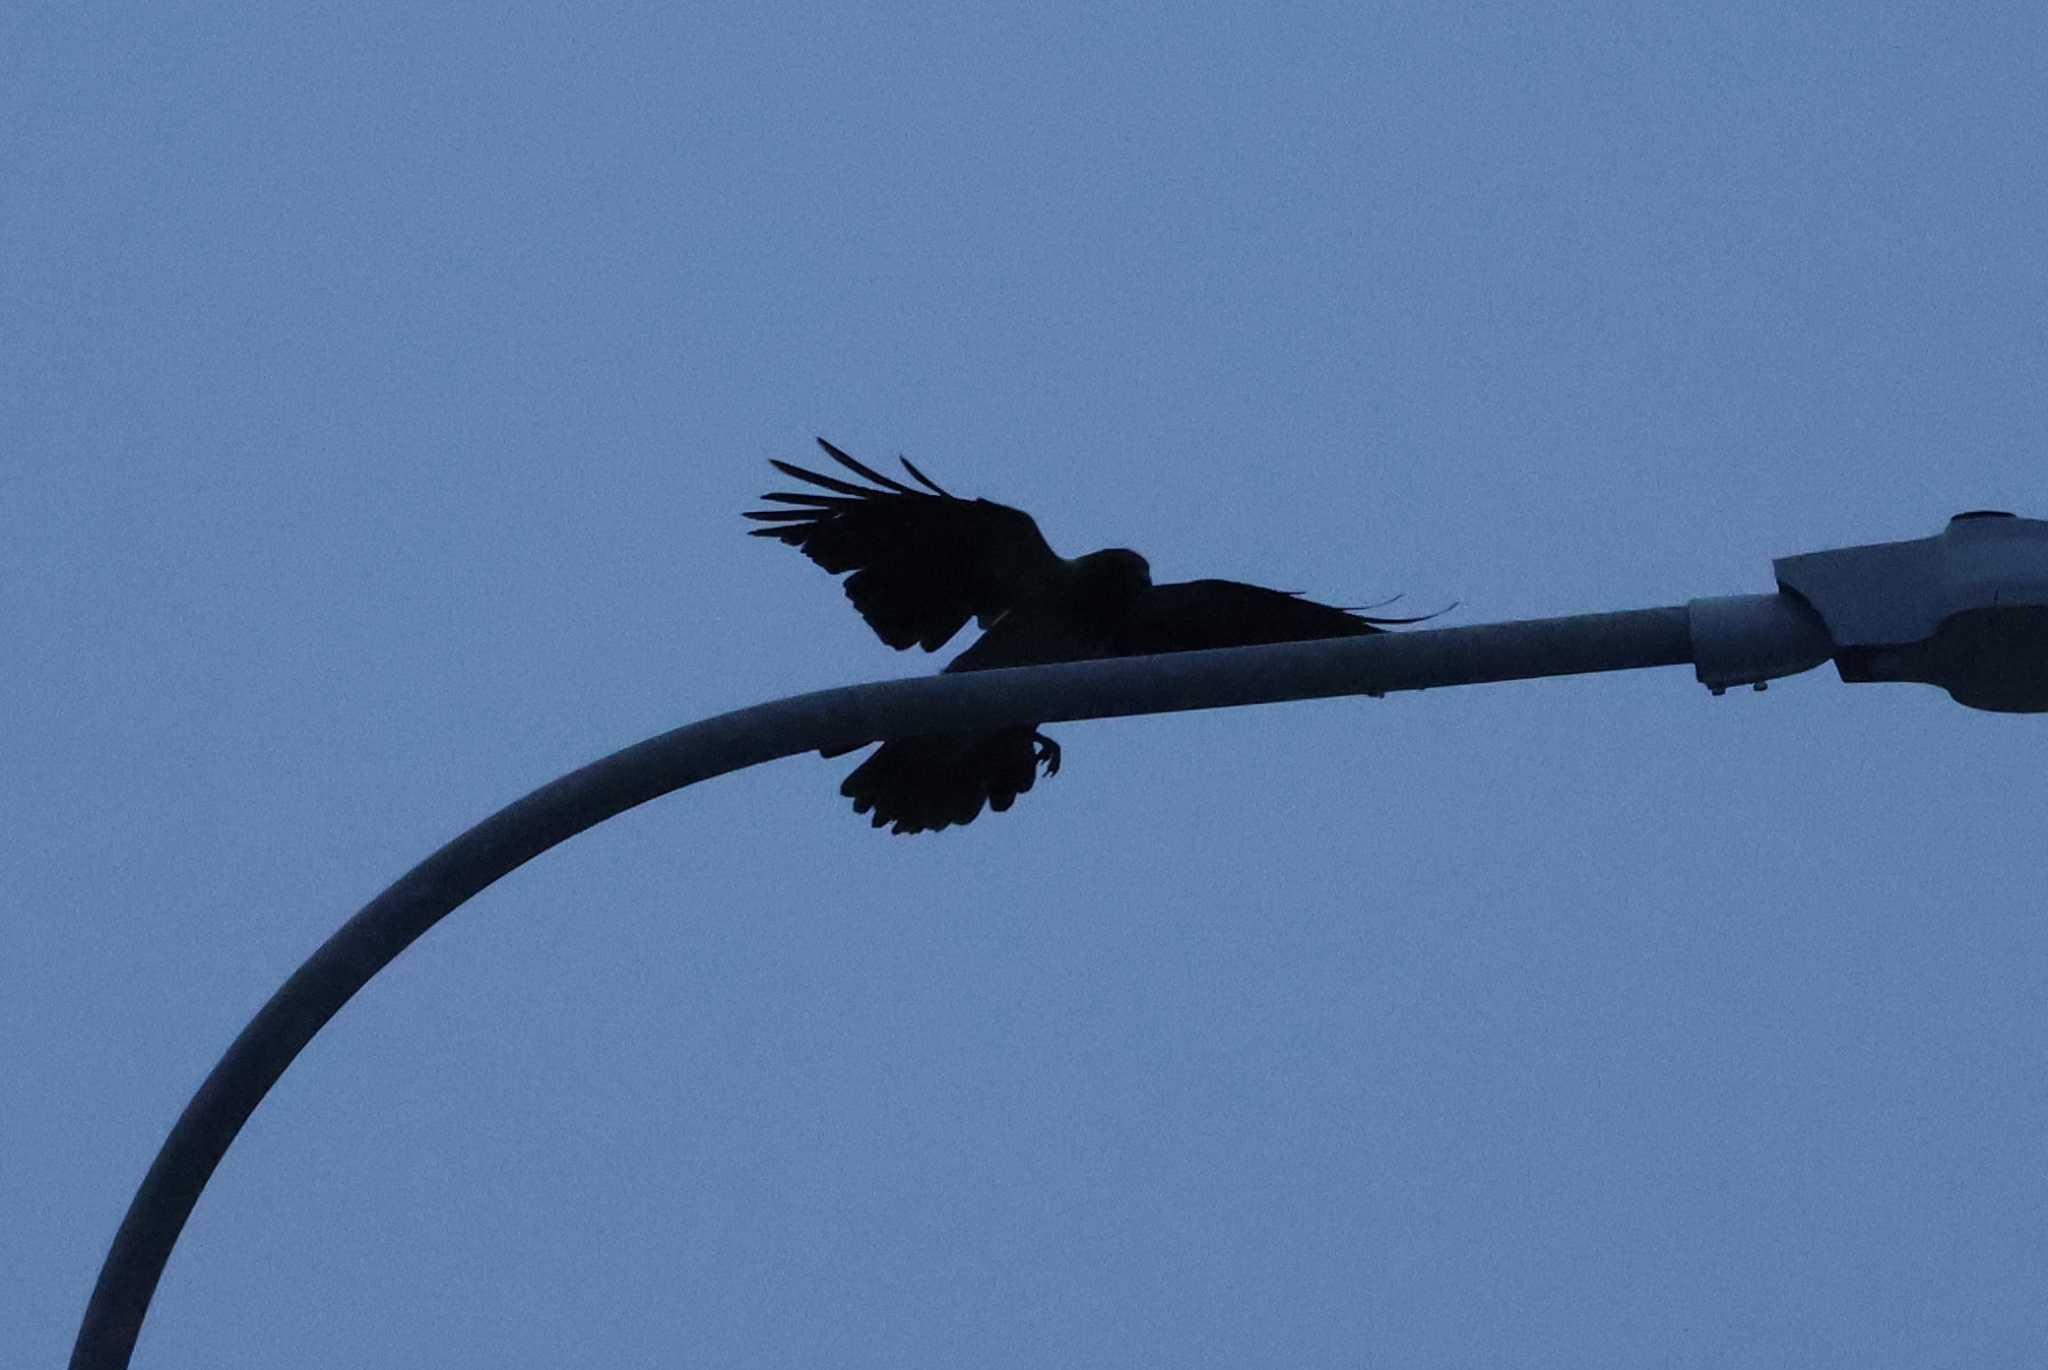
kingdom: Animalia
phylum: Chordata
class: Aves
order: Passeriformes
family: Corvidae
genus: Corvus
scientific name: Corvus cornix
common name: Hooded crow
